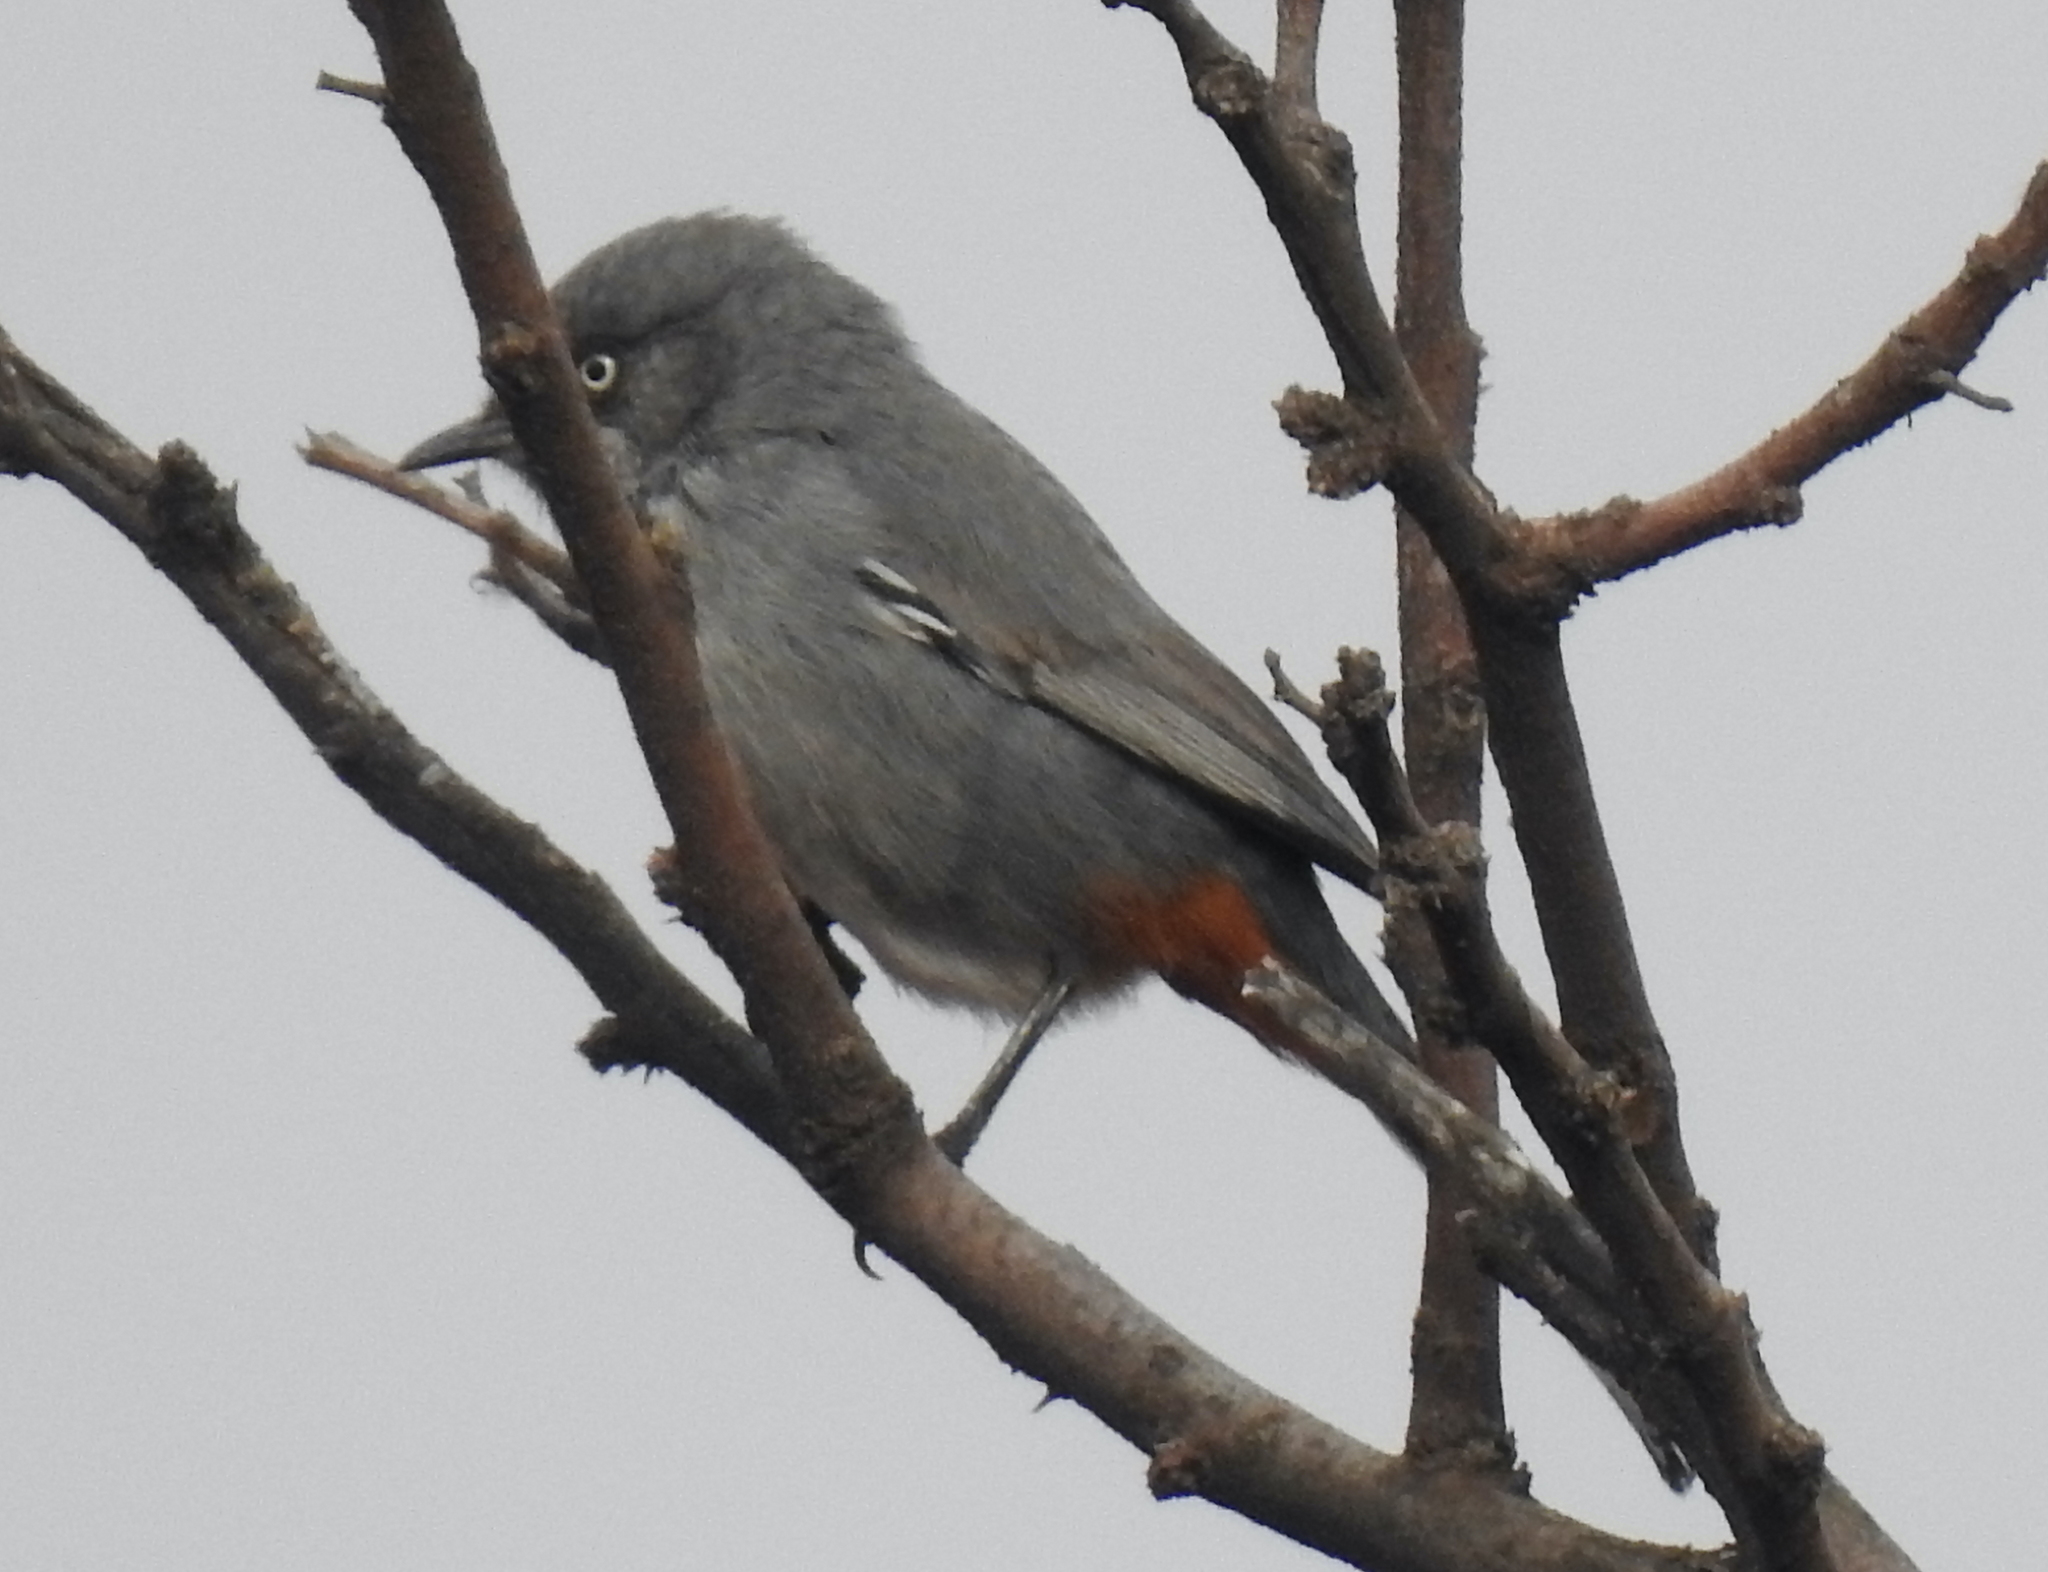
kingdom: Animalia
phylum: Chordata
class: Aves
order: Passeriformes
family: Sylviidae
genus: Sylvia
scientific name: Sylvia subcaerulea
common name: Chestnut-vented warbler
